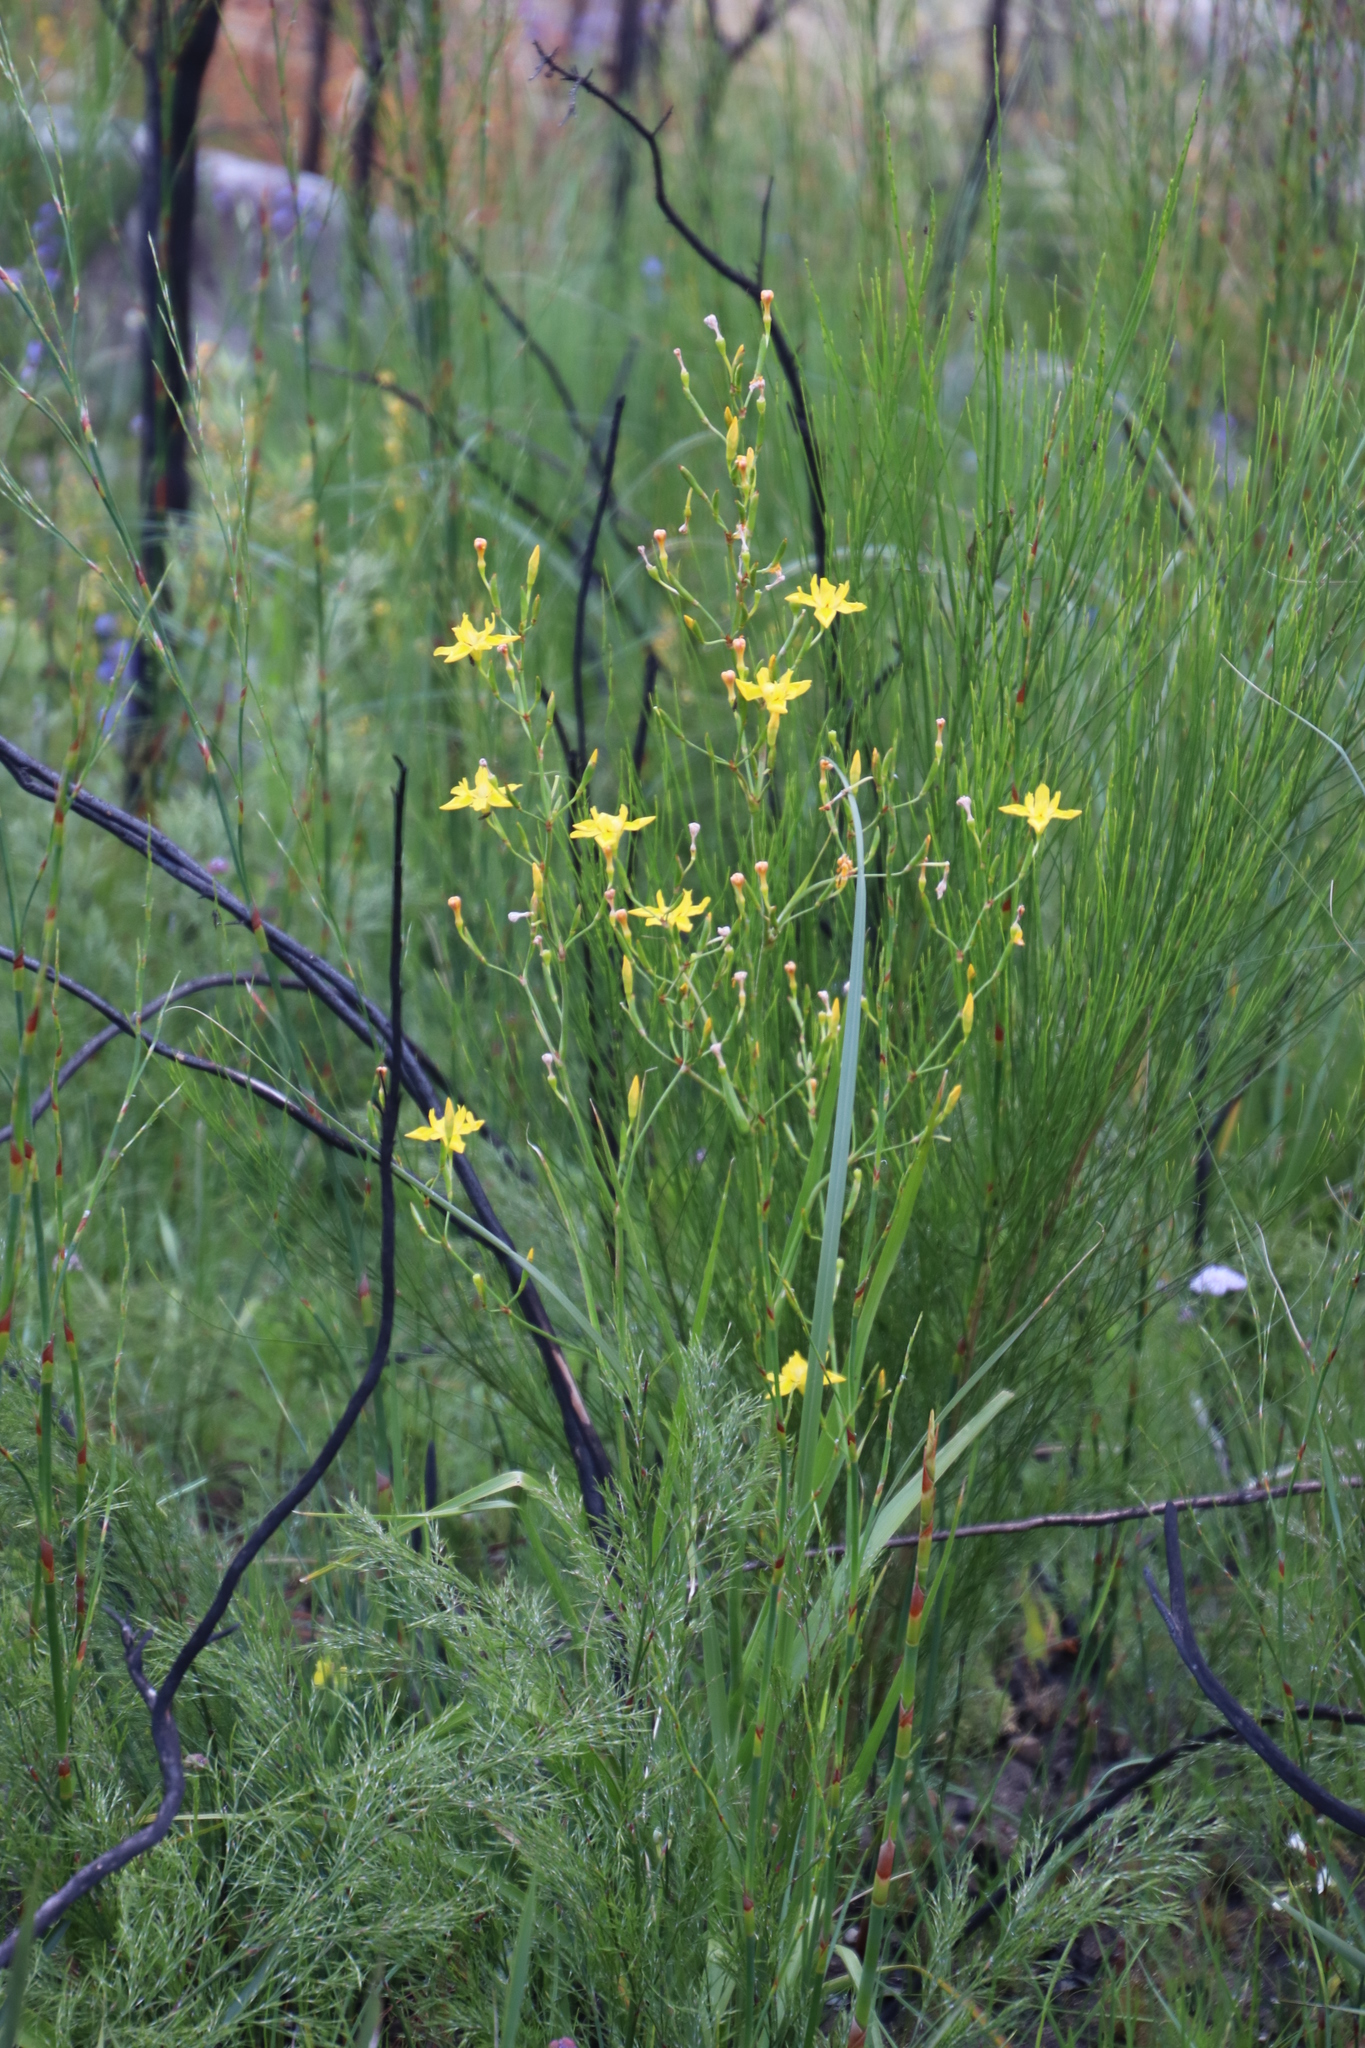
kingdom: Plantae
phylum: Tracheophyta
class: Liliopsida
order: Asparagales
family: Iridaceae
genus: Moraea
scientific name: Moraea ramosissima
